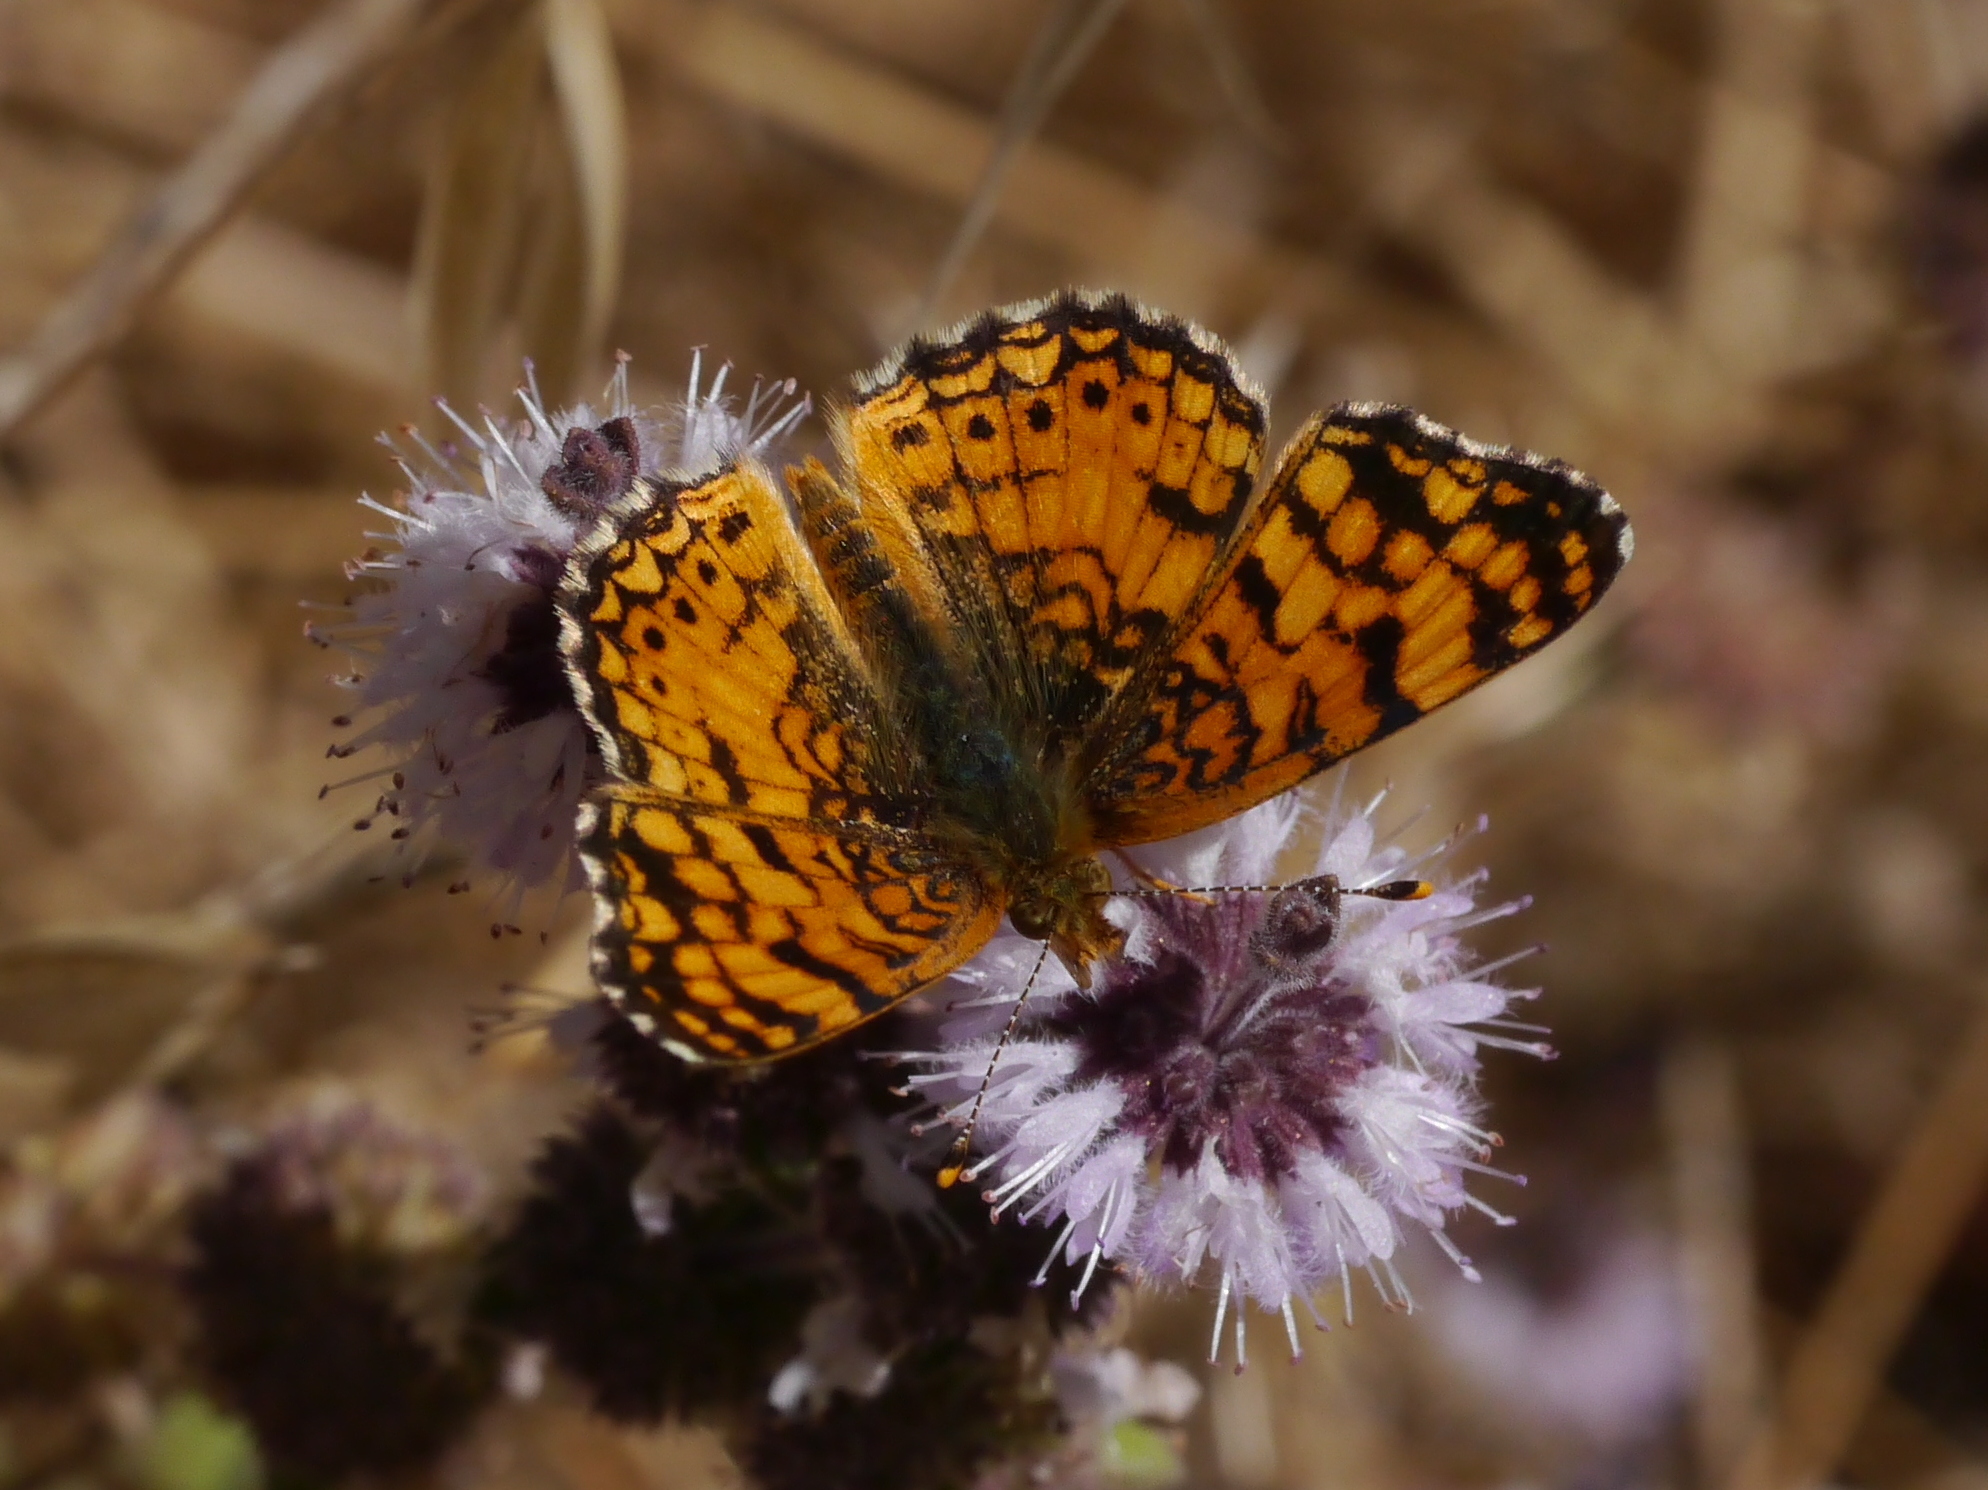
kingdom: Animalia
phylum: Arthropoda
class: Insecta
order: Lepidoptera
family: Nymphalidae
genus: Eresia
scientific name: Eresia aveyrona
